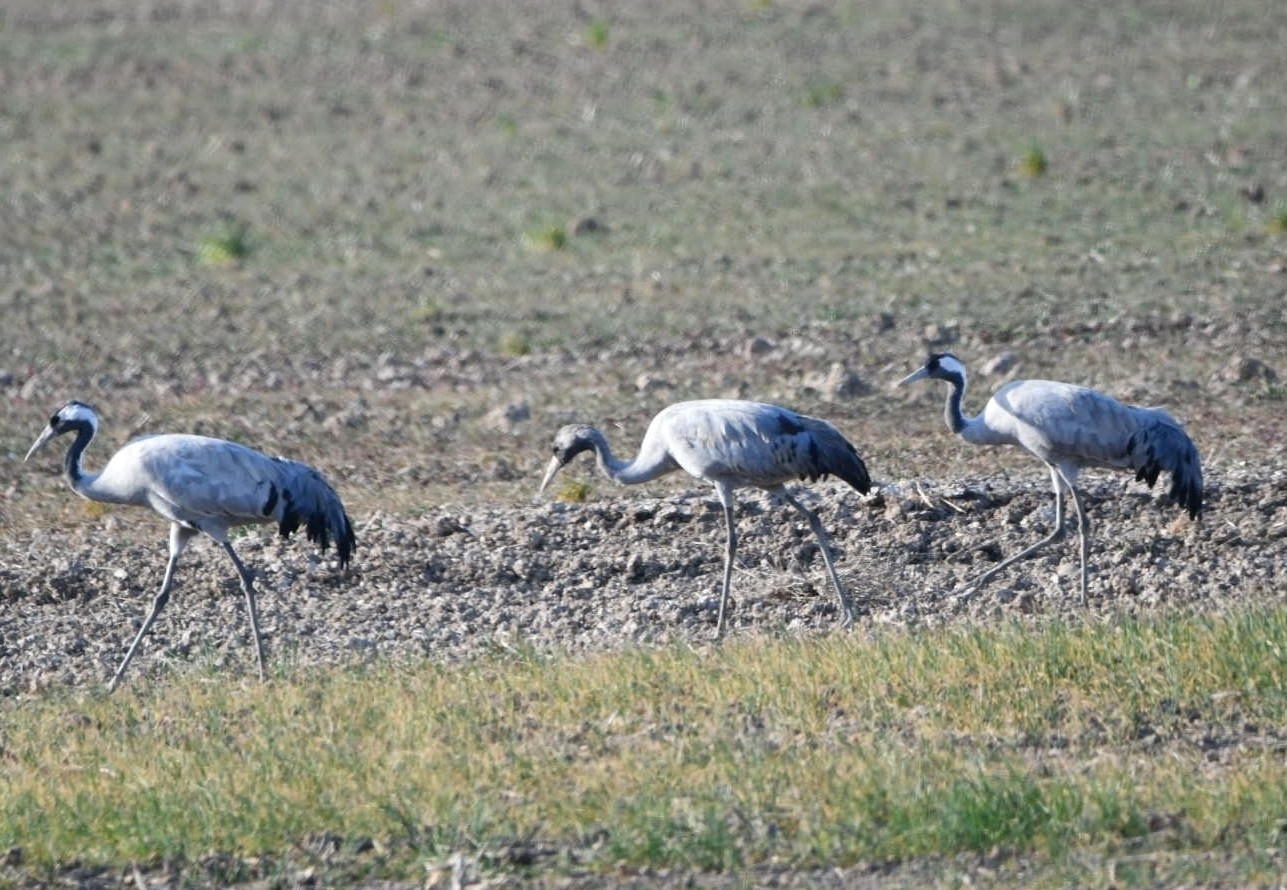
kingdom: Animalia
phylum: Chordata
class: Aves
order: Gruiformes
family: Gruidae
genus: Grus
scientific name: Grus grus
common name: Common crane
